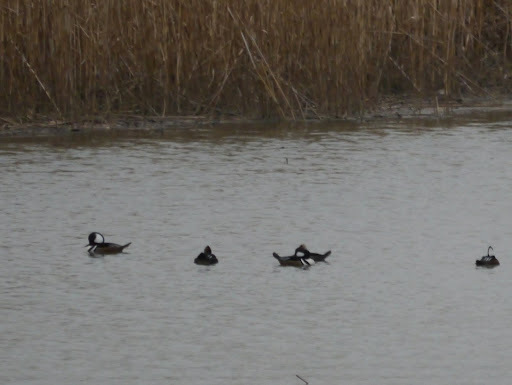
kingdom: Animalia
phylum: Chordata
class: Aves
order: Anseriformes
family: Anatidae
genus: Lophodytes
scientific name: Lophodytes cucullatus
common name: Hooded merganser
